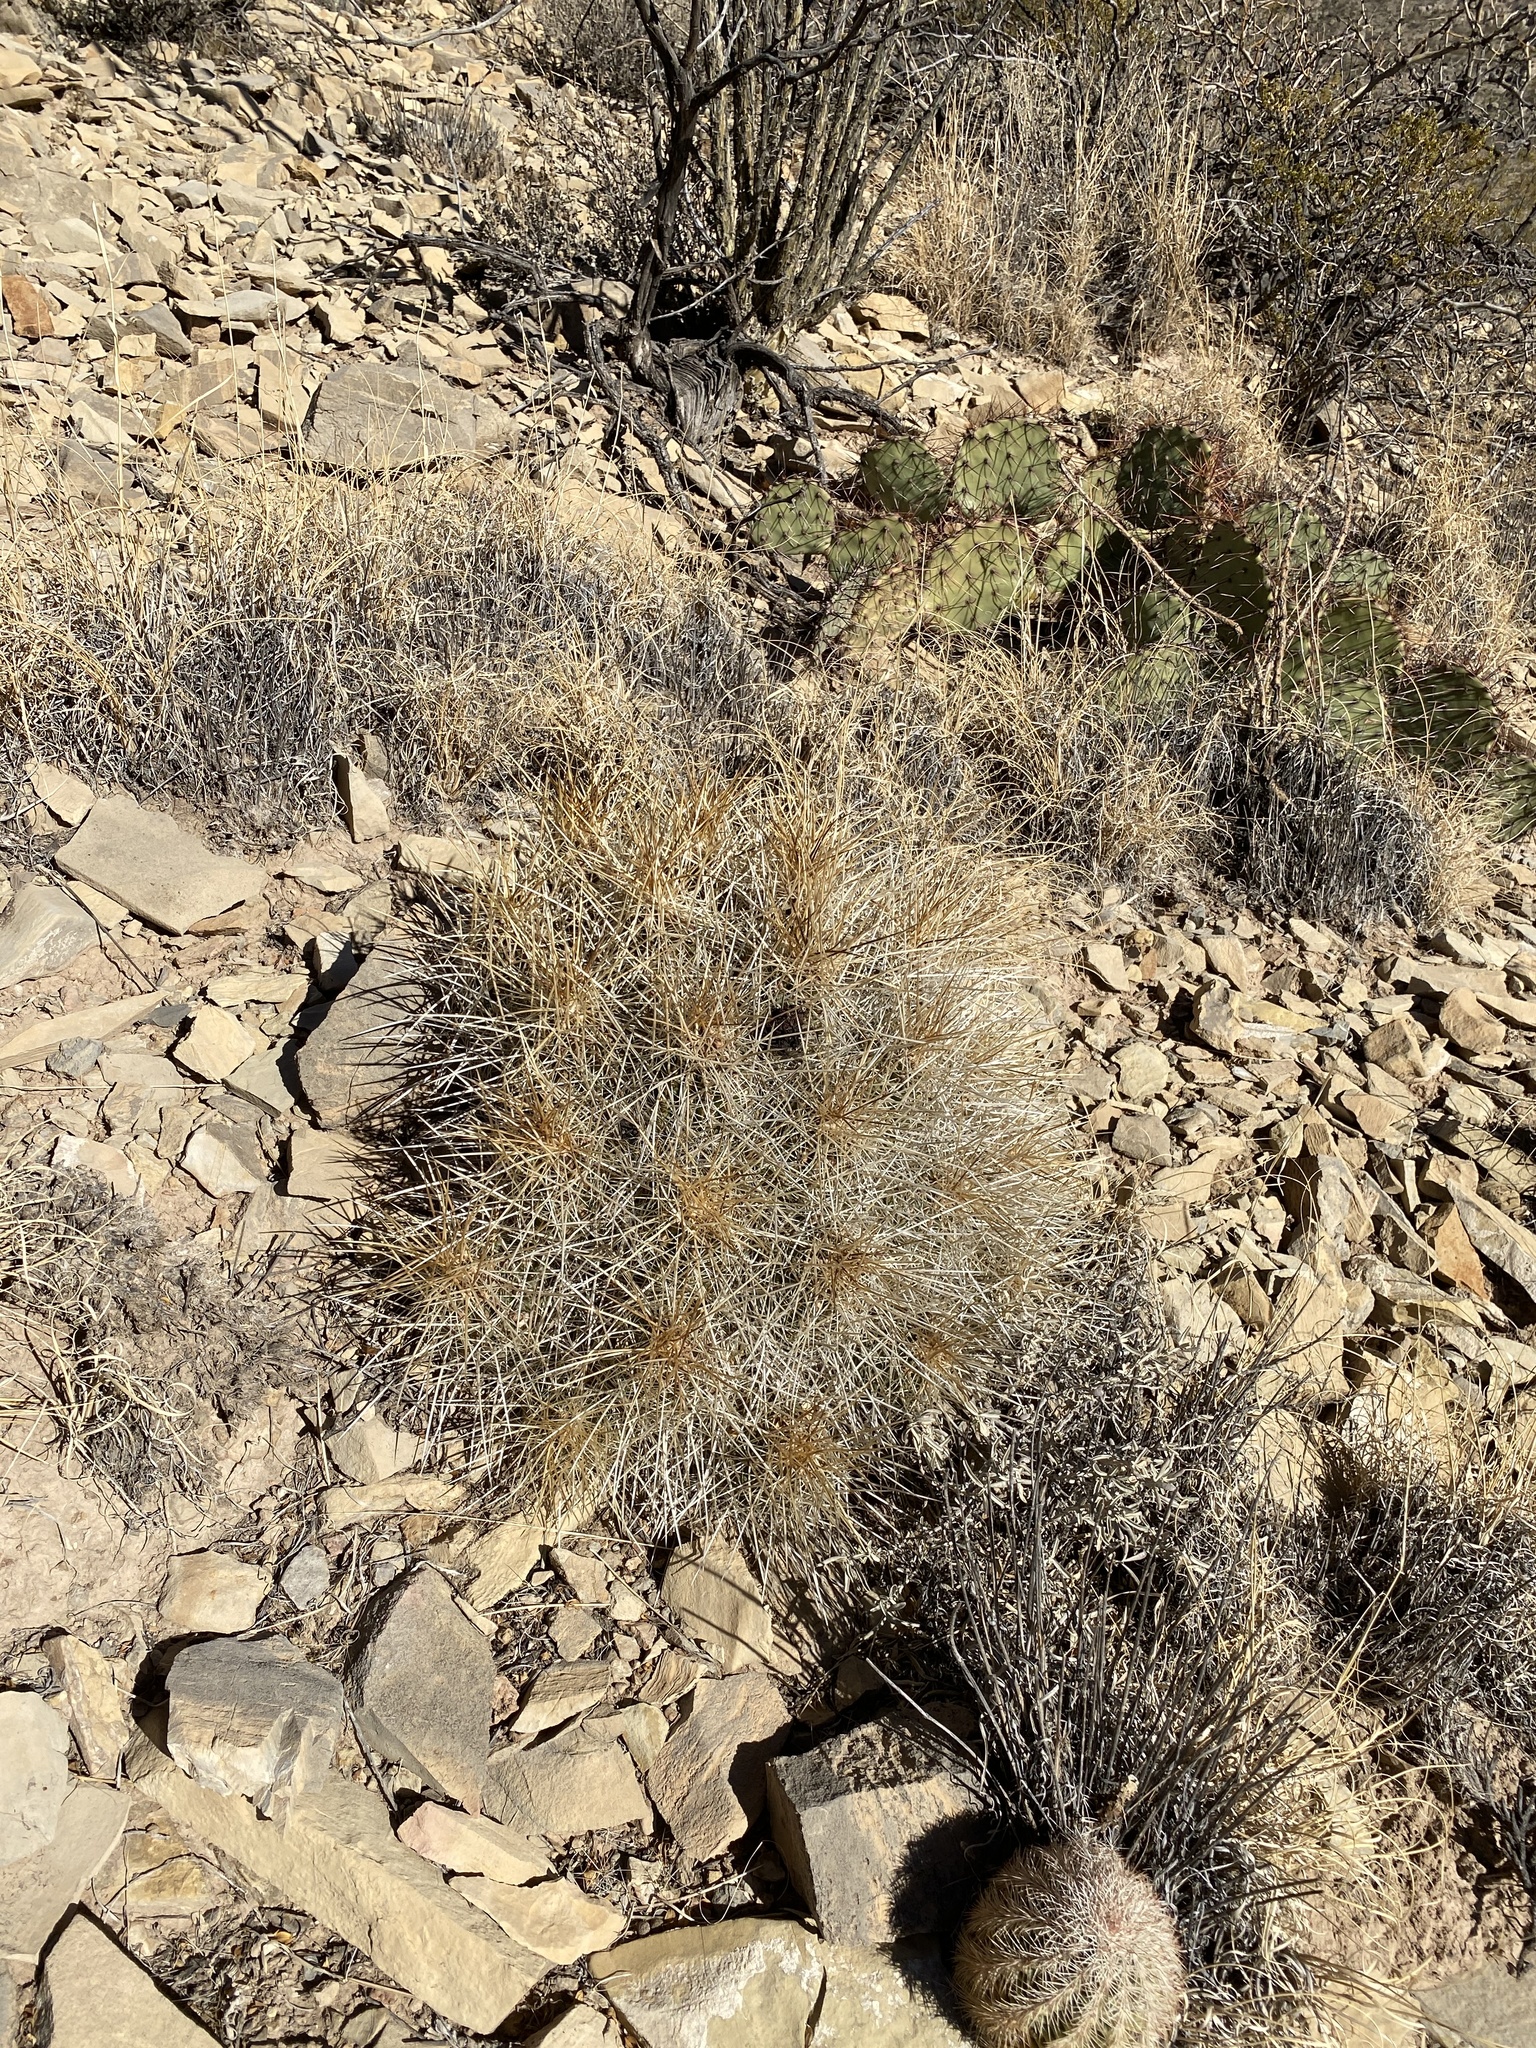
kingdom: Plantae
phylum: Tracheophyta
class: Magnoliopsida
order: Caryophyllales
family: Cactaceae
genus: Echinocereus
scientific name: Echinocereus stramineus
